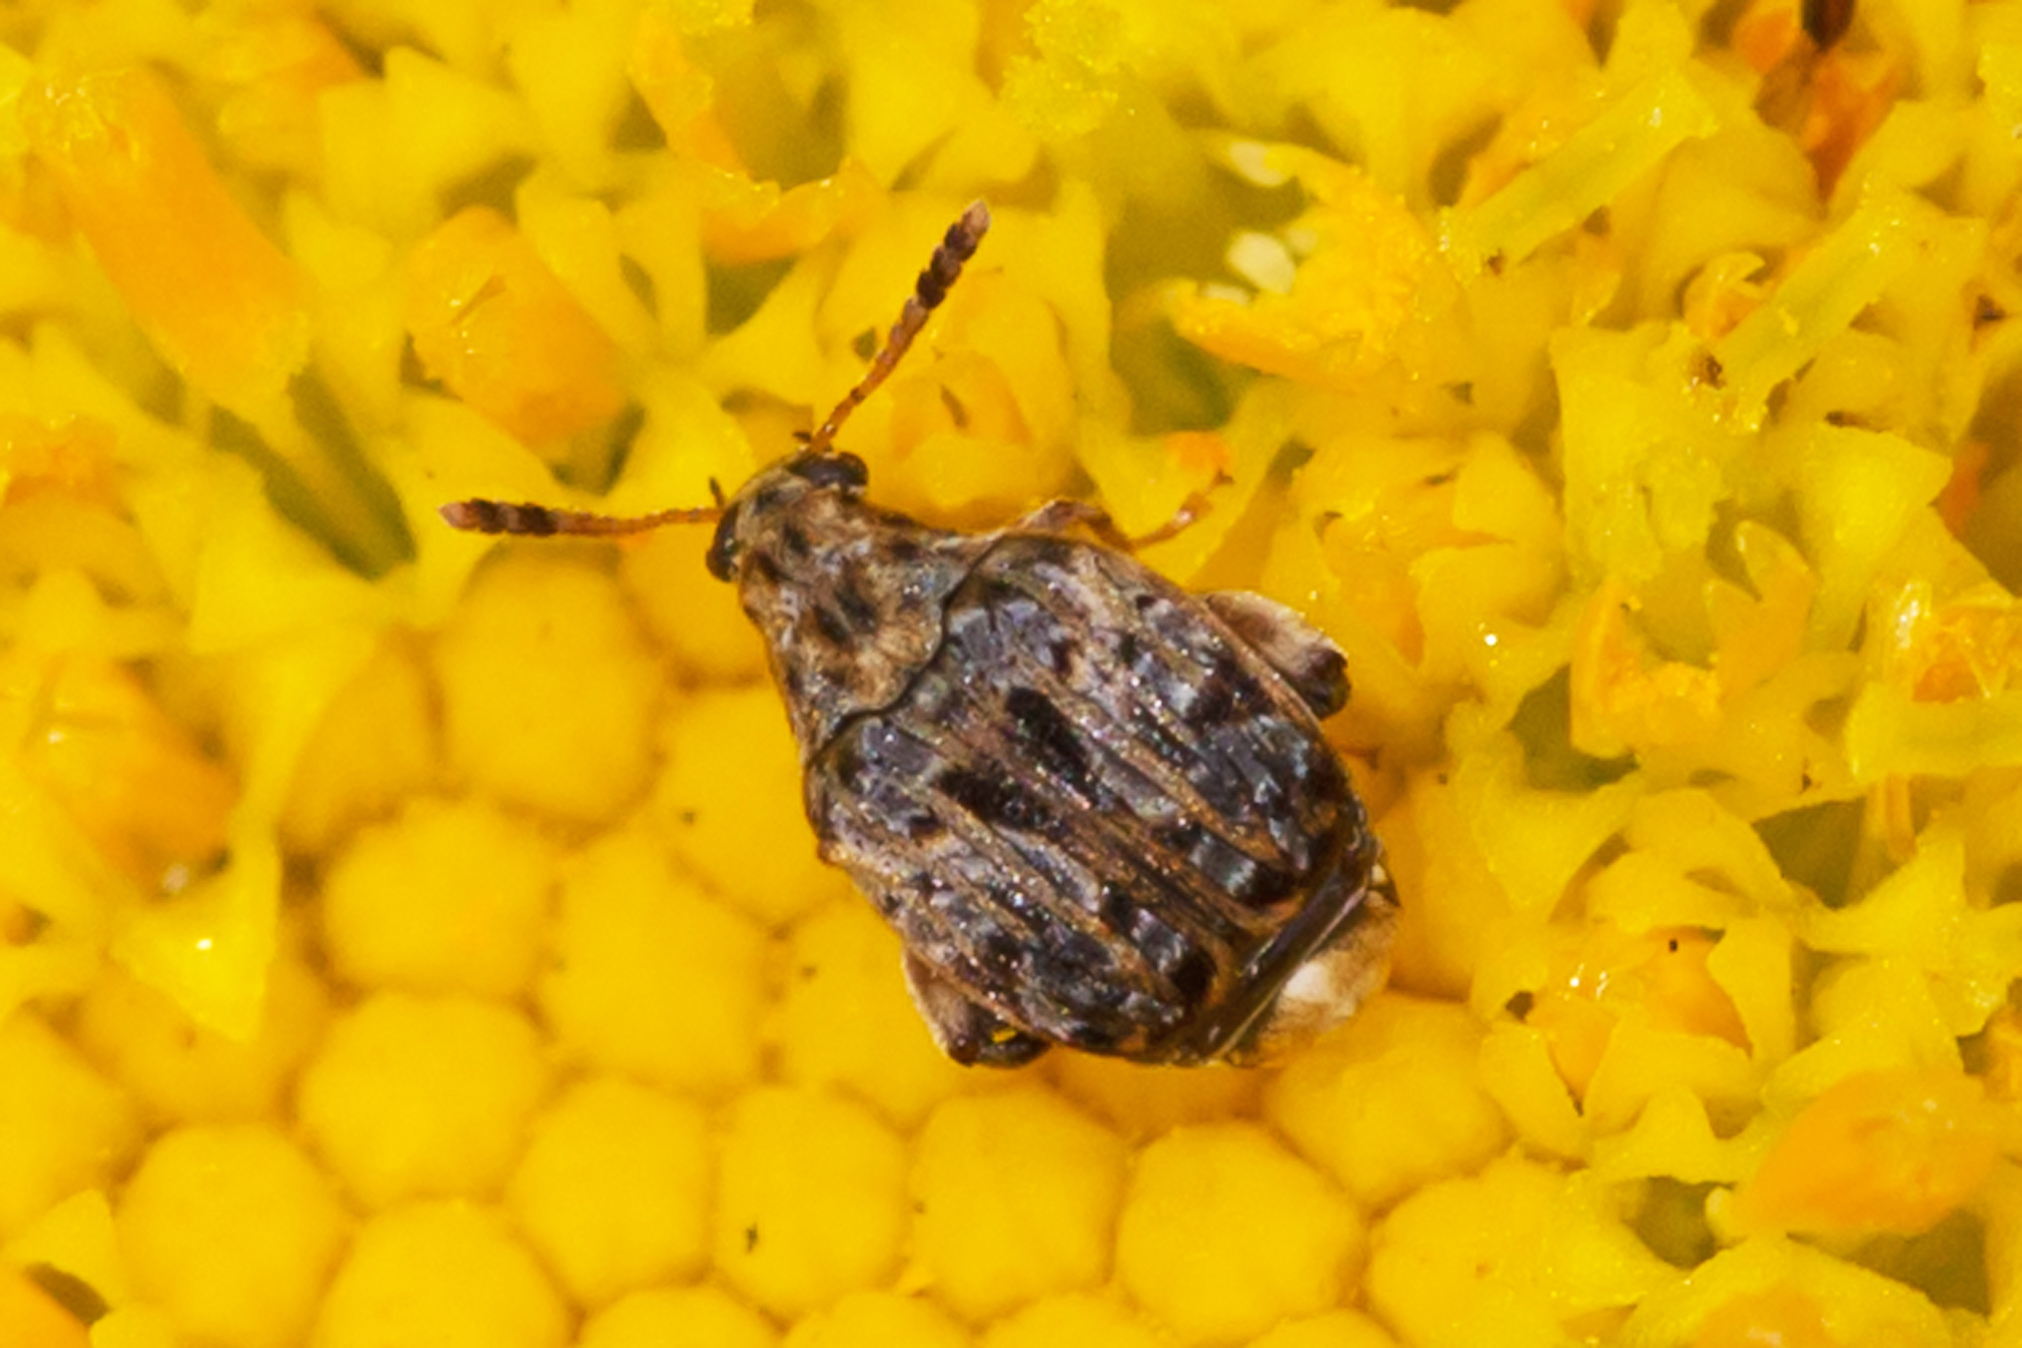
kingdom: Animalia
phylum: Arthropoda
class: Insecta
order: Coleoptera
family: Chrysomelidae
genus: Gibbobruchus
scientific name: Gibbobruchus mimus
